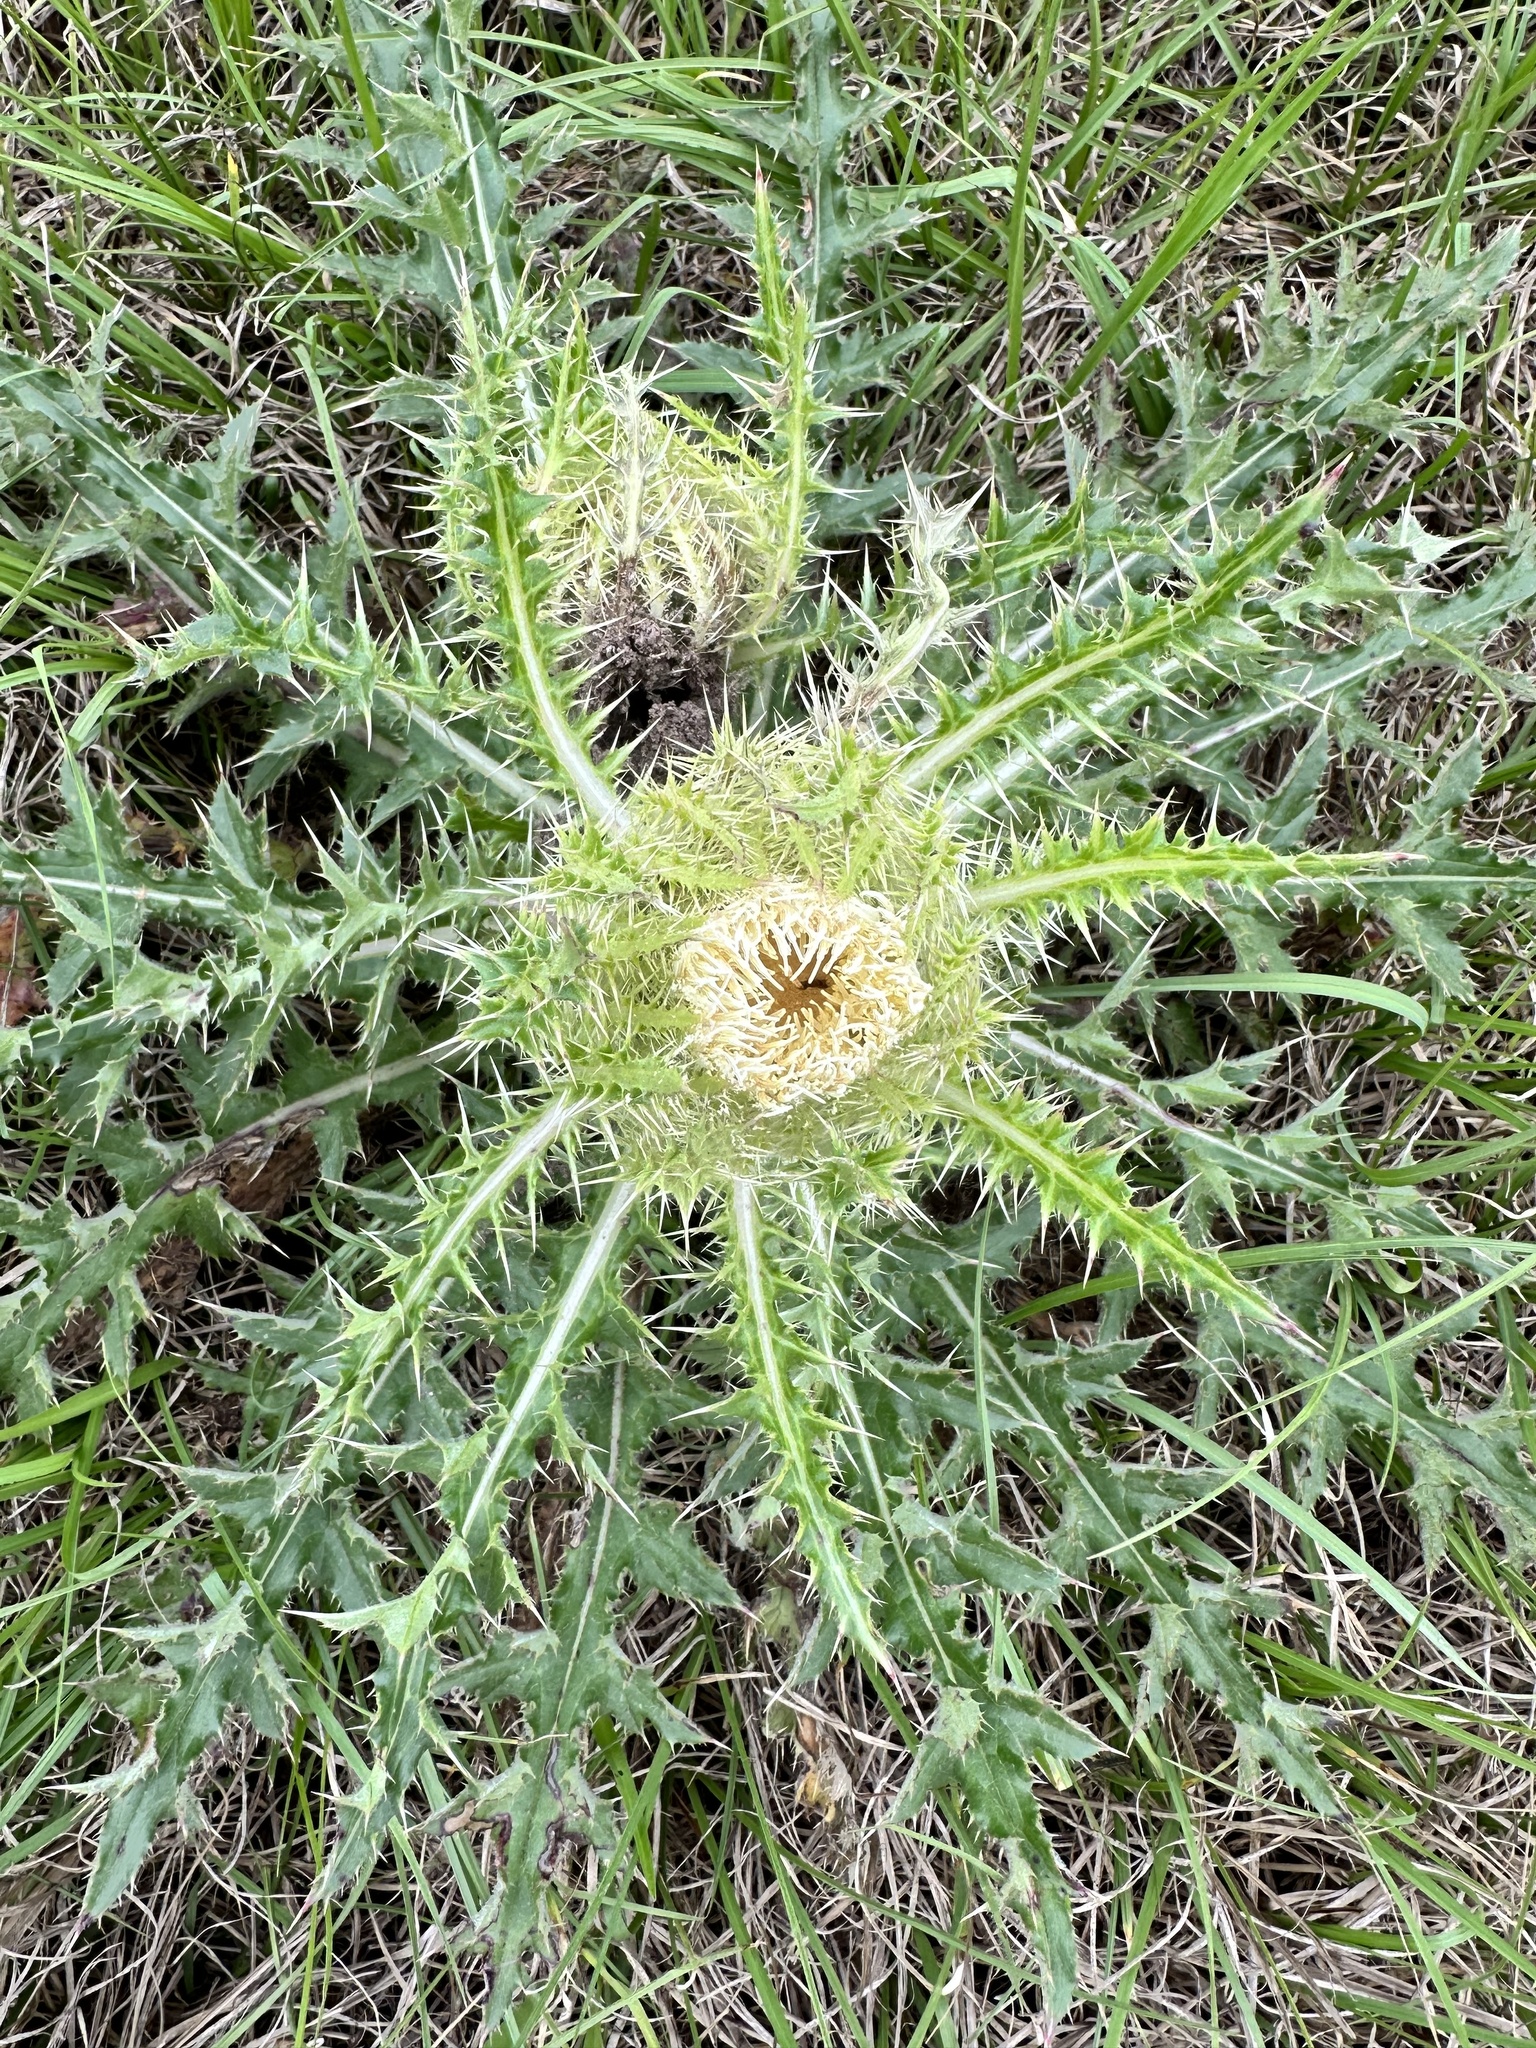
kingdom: Plantae
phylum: Tracheophyta
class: Magnoliopsida
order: Asterales
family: Asteraceae
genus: Cirsium
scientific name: Cirsium horridulum
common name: Bristly thistle
